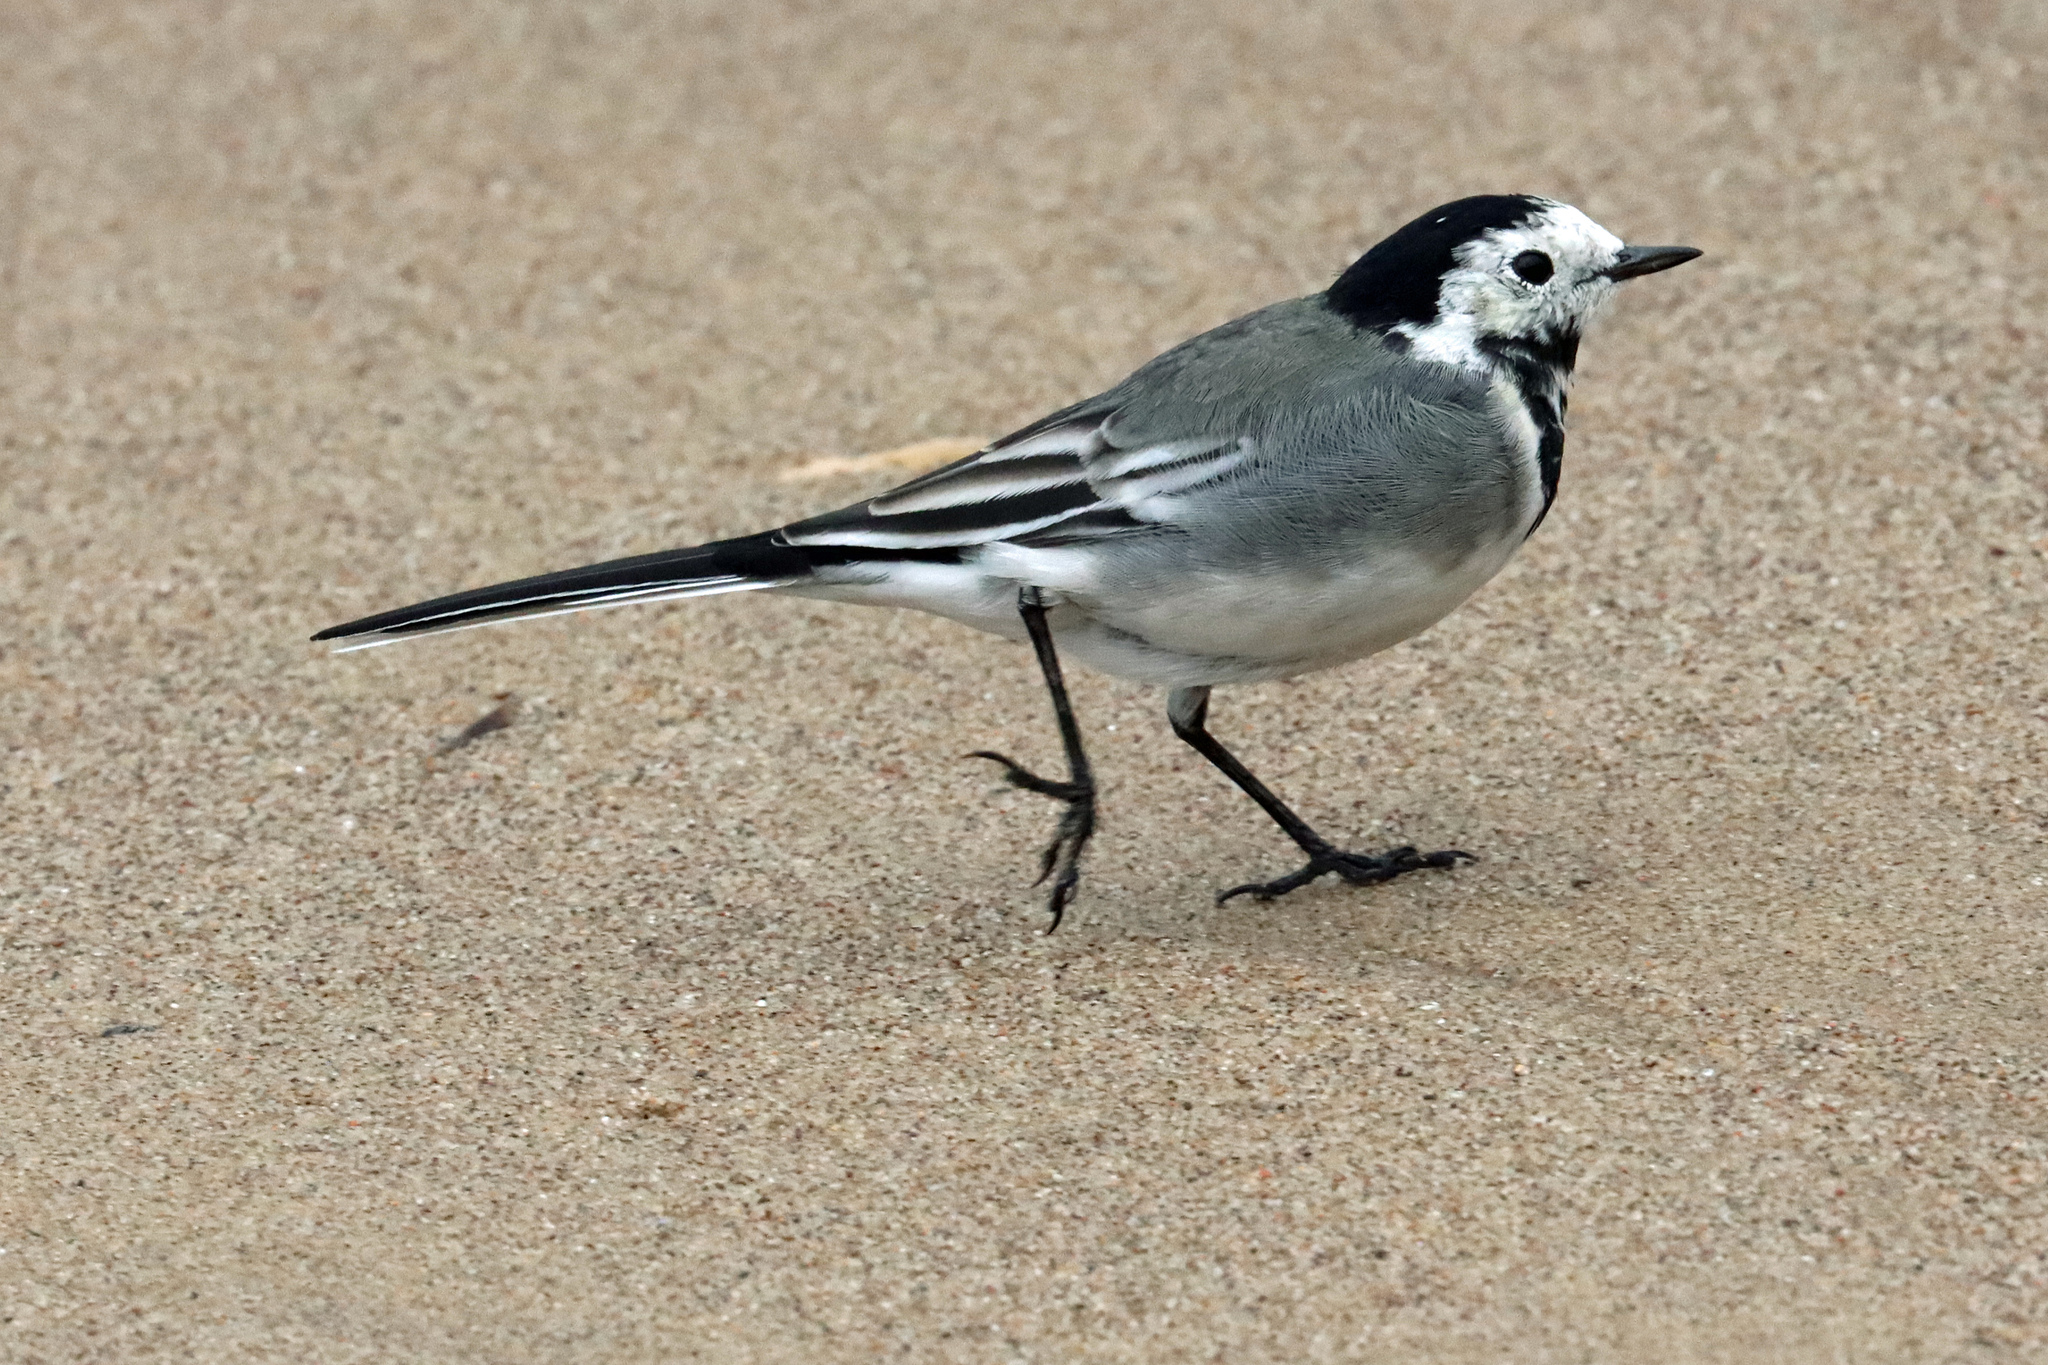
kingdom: Animalia
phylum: Chordata
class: Aves
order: Passeriformes
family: Motacillidae
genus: Motacilla
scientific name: Motacilla alba
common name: White wagtail
